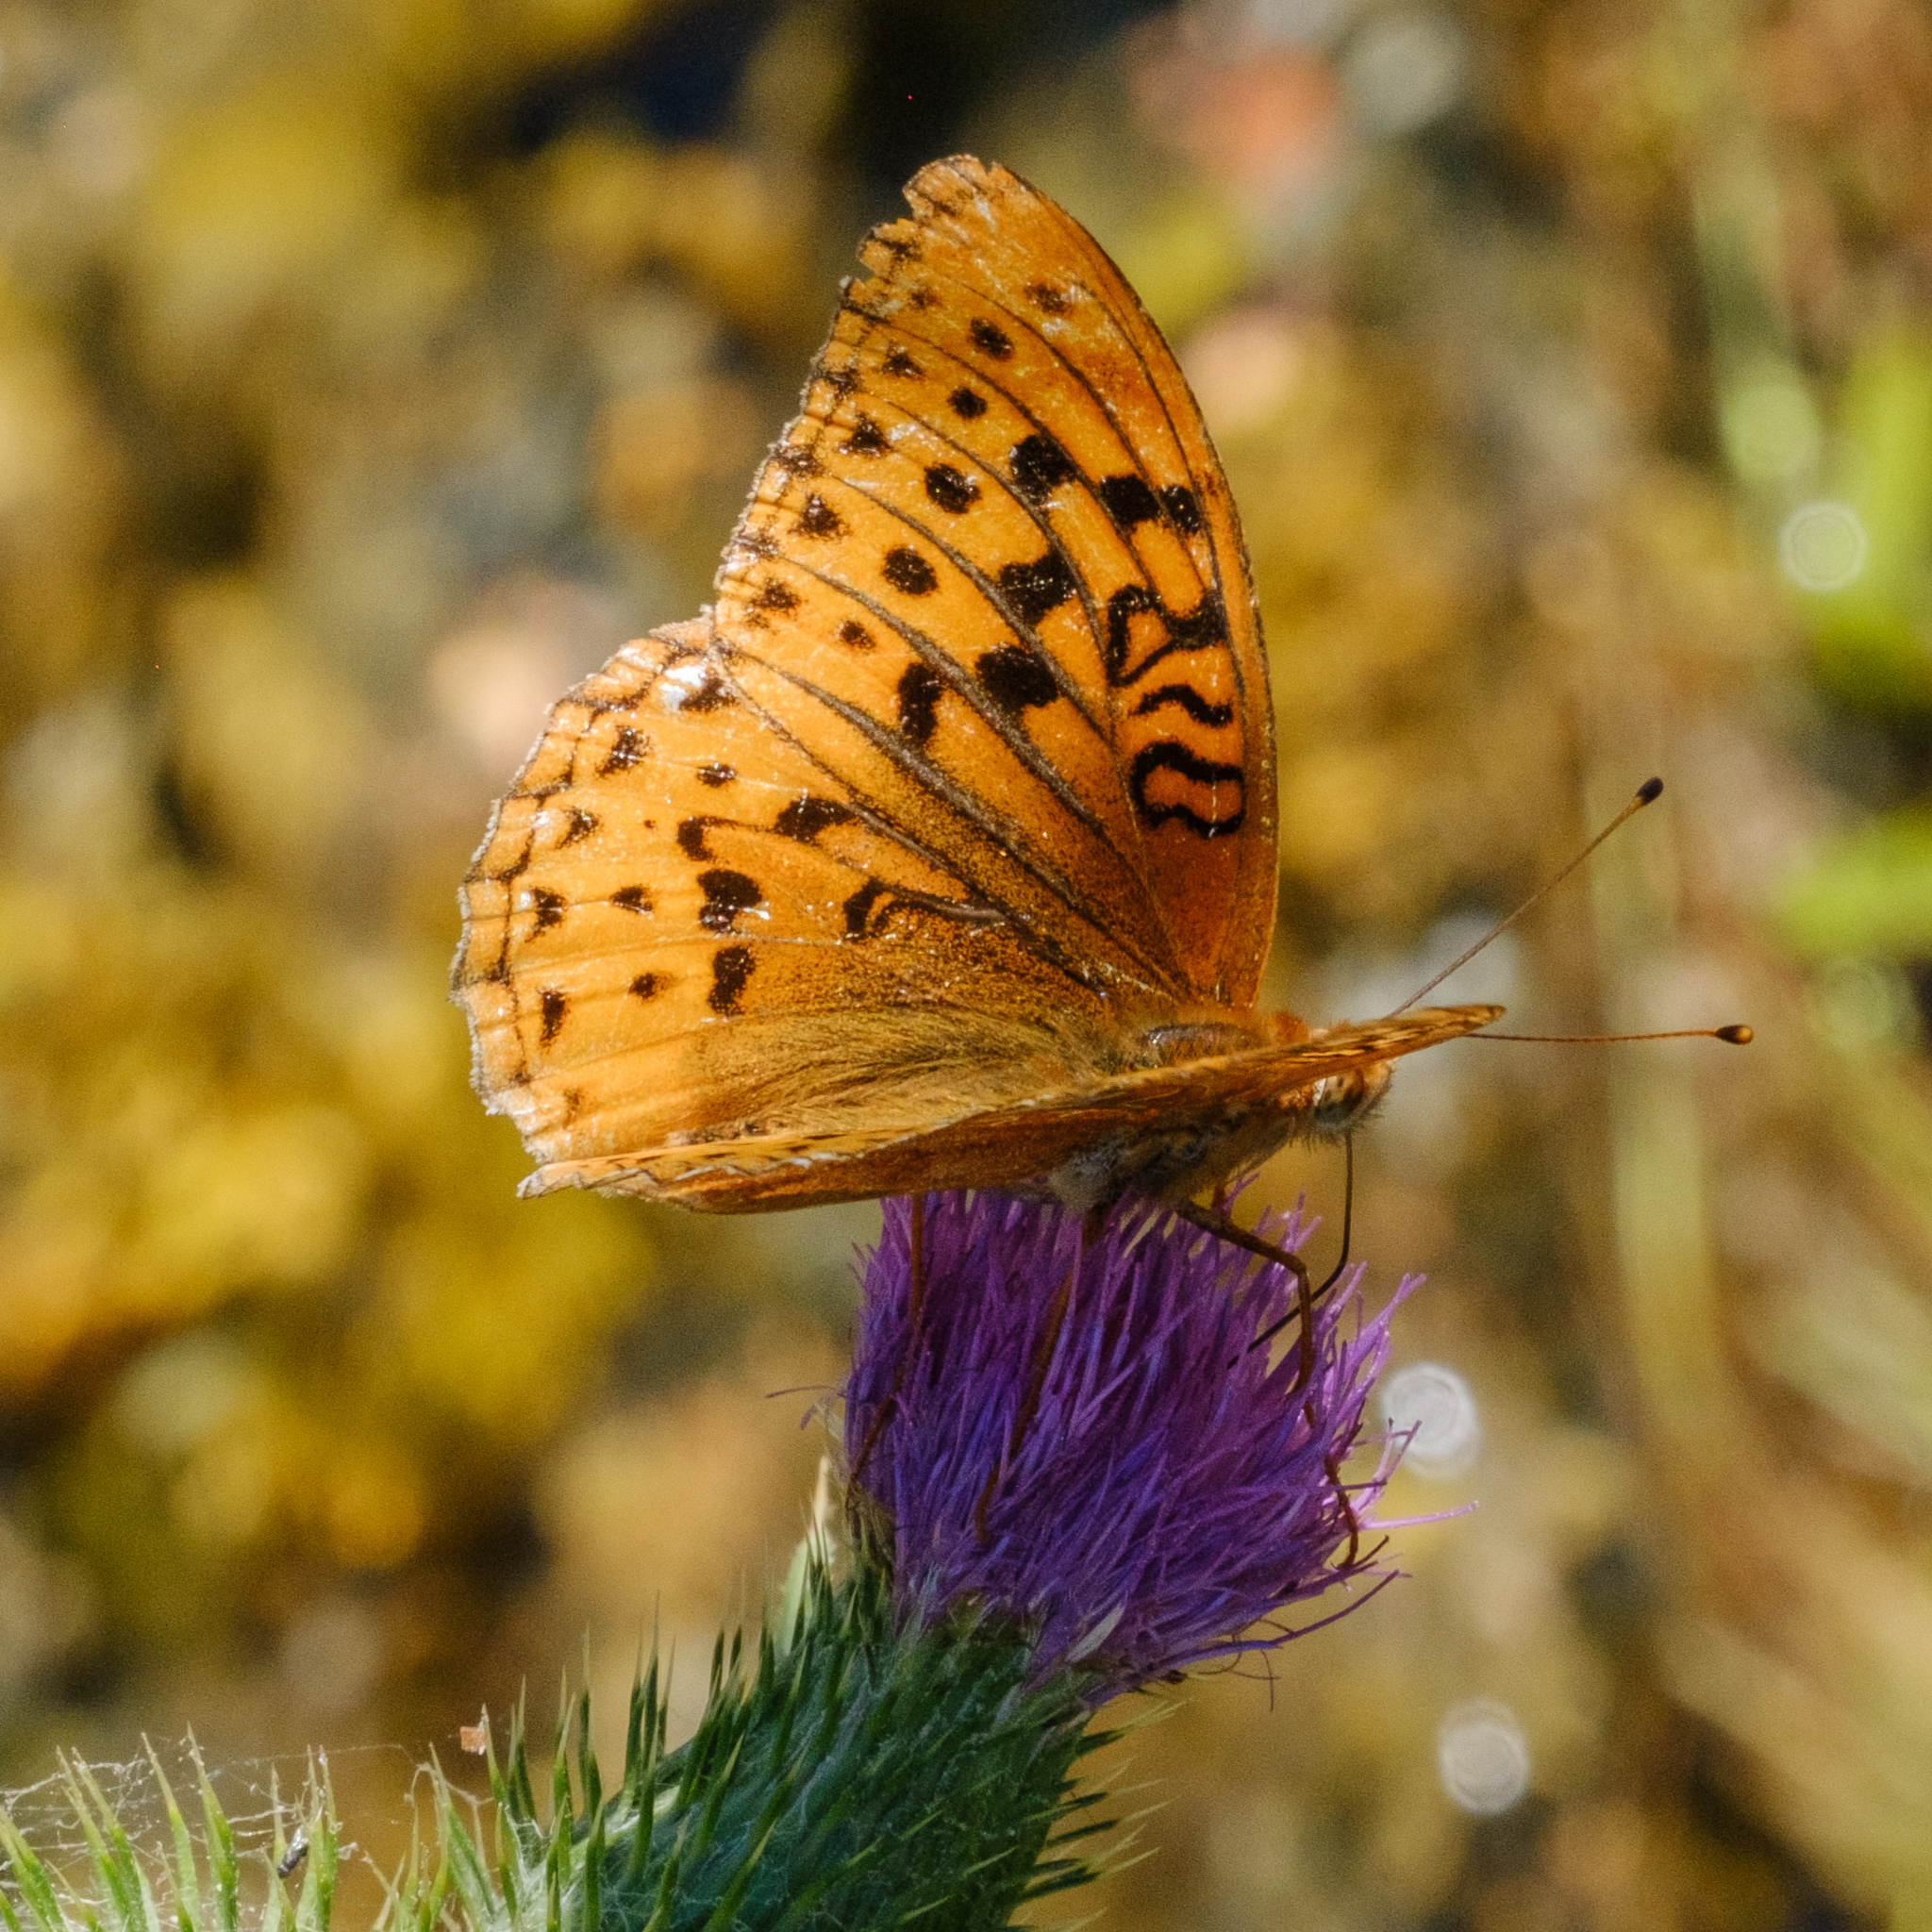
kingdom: Animalia
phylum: Arthropoda
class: Insecta
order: Lepidoptera
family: Nymphalidae
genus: Speyeria
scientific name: Speyeria cybele
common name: Great spangled fritillary
